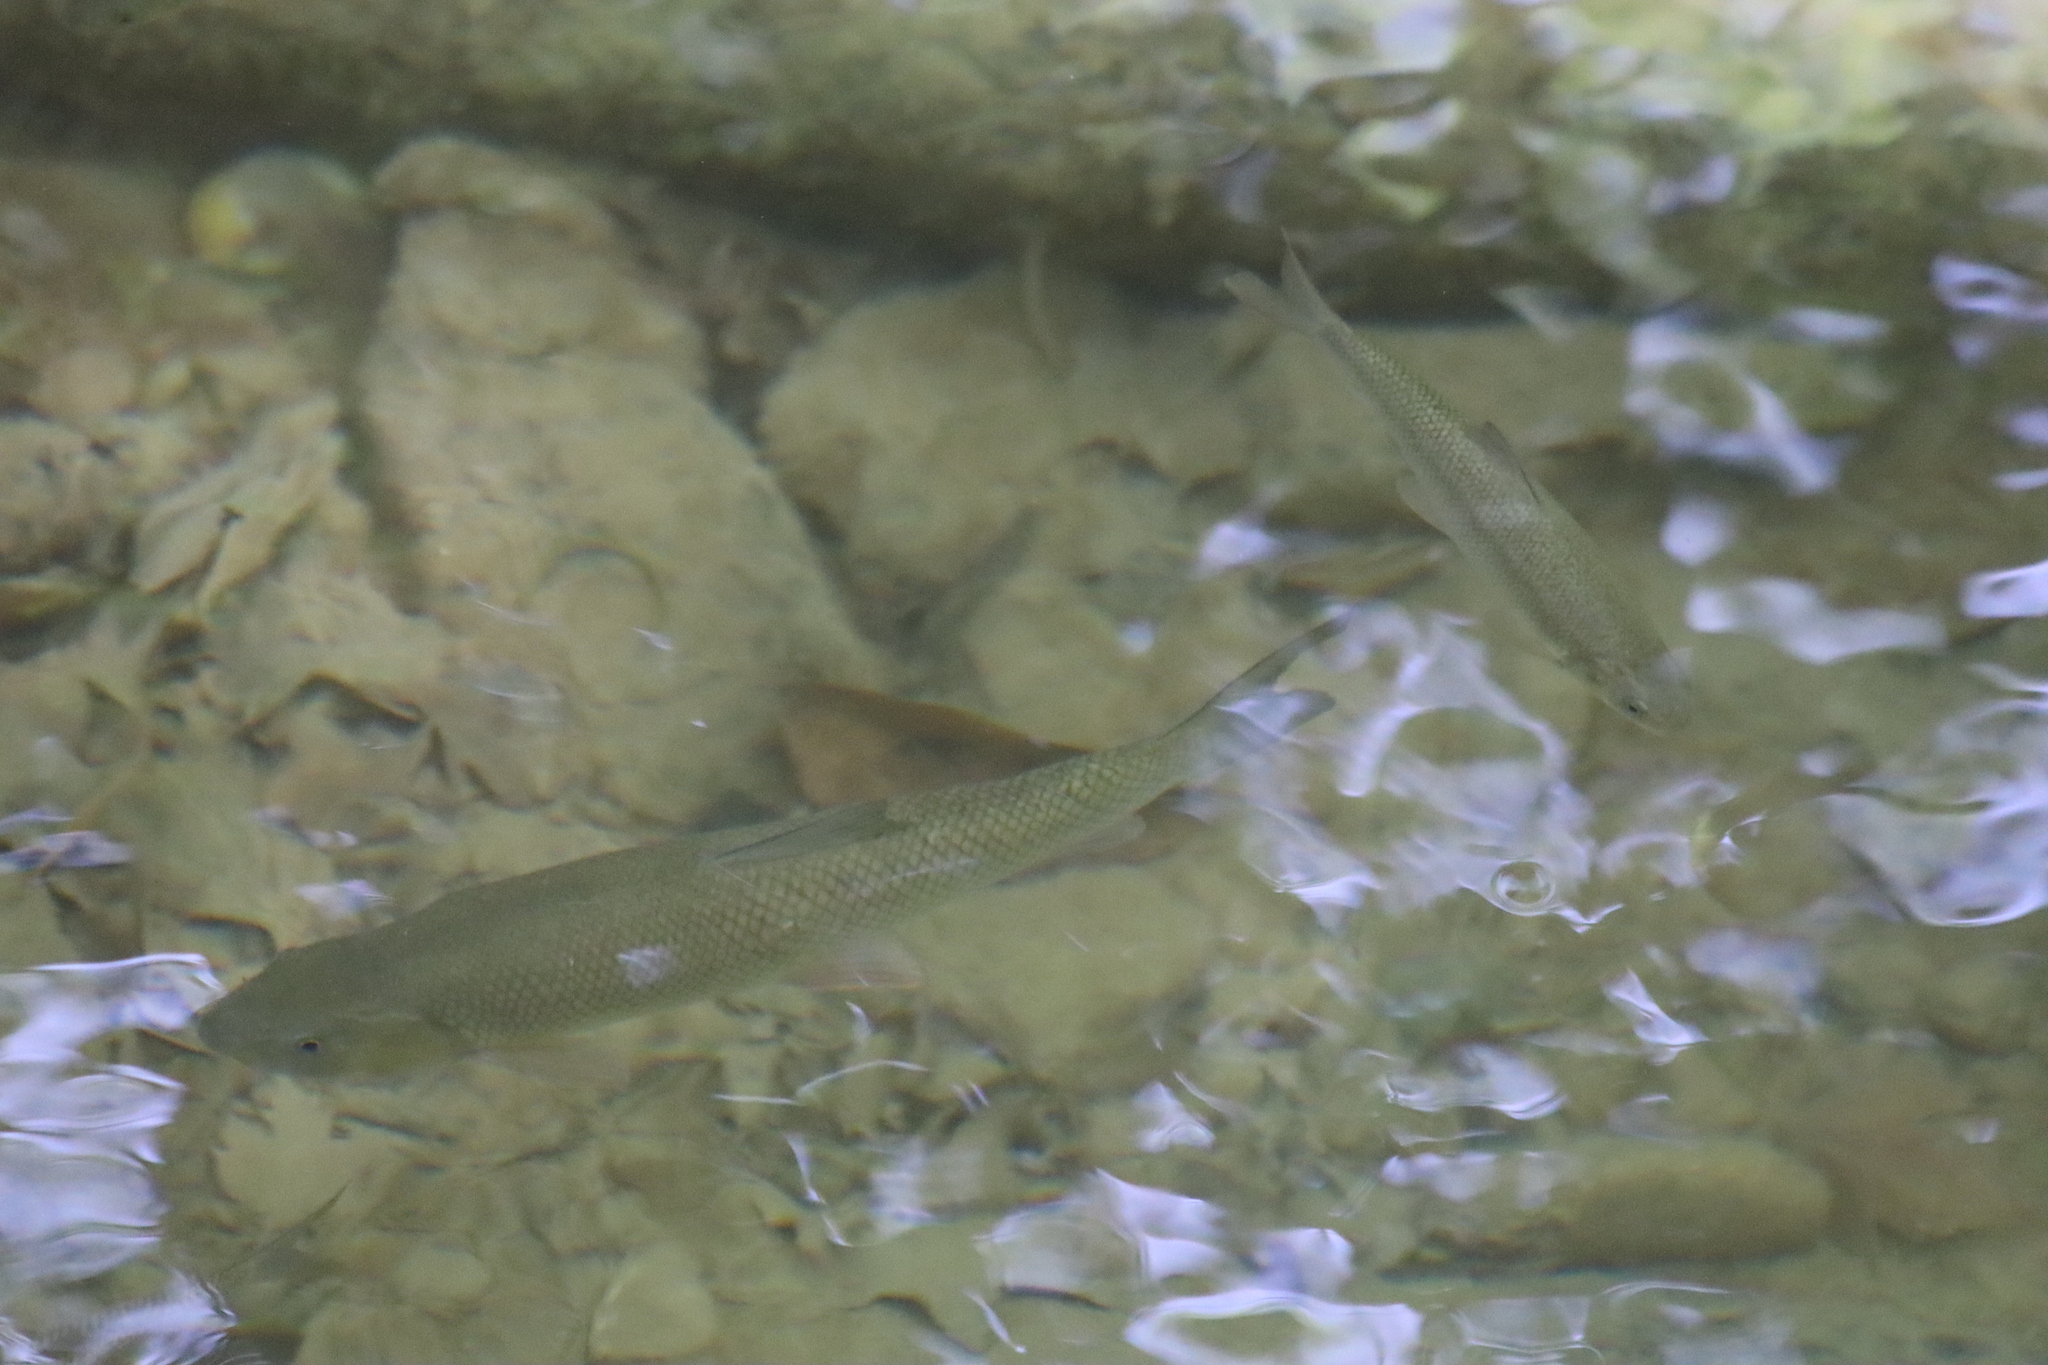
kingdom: Animalia
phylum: Chordata
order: Cypriniformes
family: Cyprinidae
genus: Capoeta
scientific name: Capoeta antalyensis
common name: Pamphylian scraper
